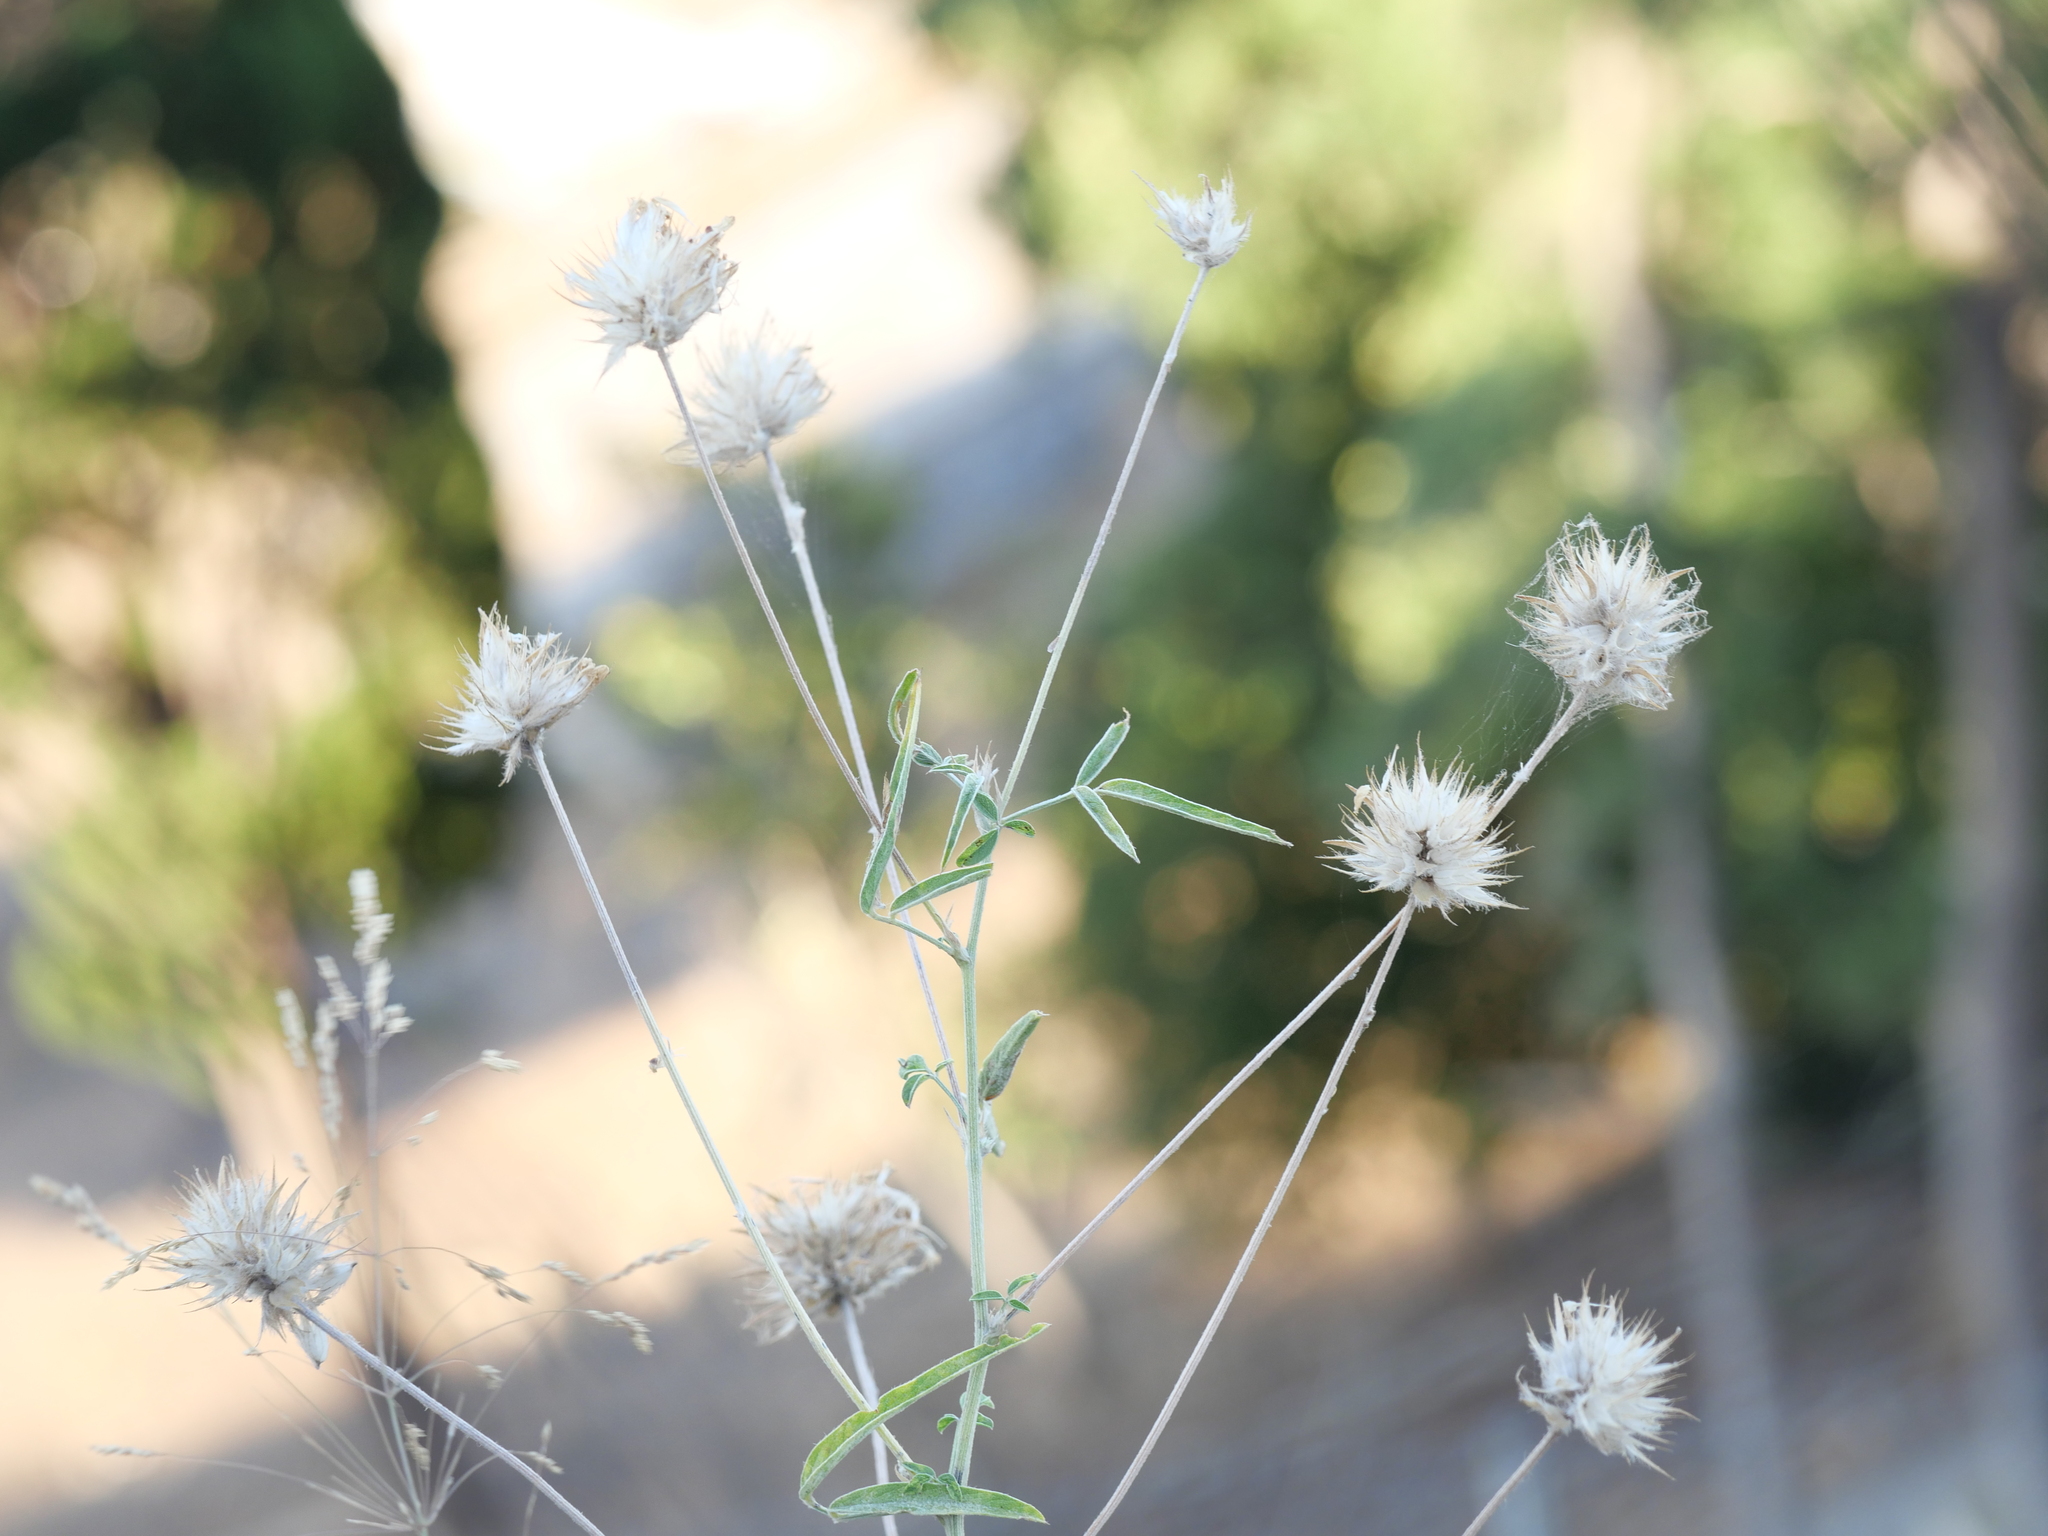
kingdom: Plantae
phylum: Tracheophyta
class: Magnoliopsida
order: Fabales
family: Fabaceae
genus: Bituminaria
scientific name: Bituminaria bituminosa
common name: Arabian pea
